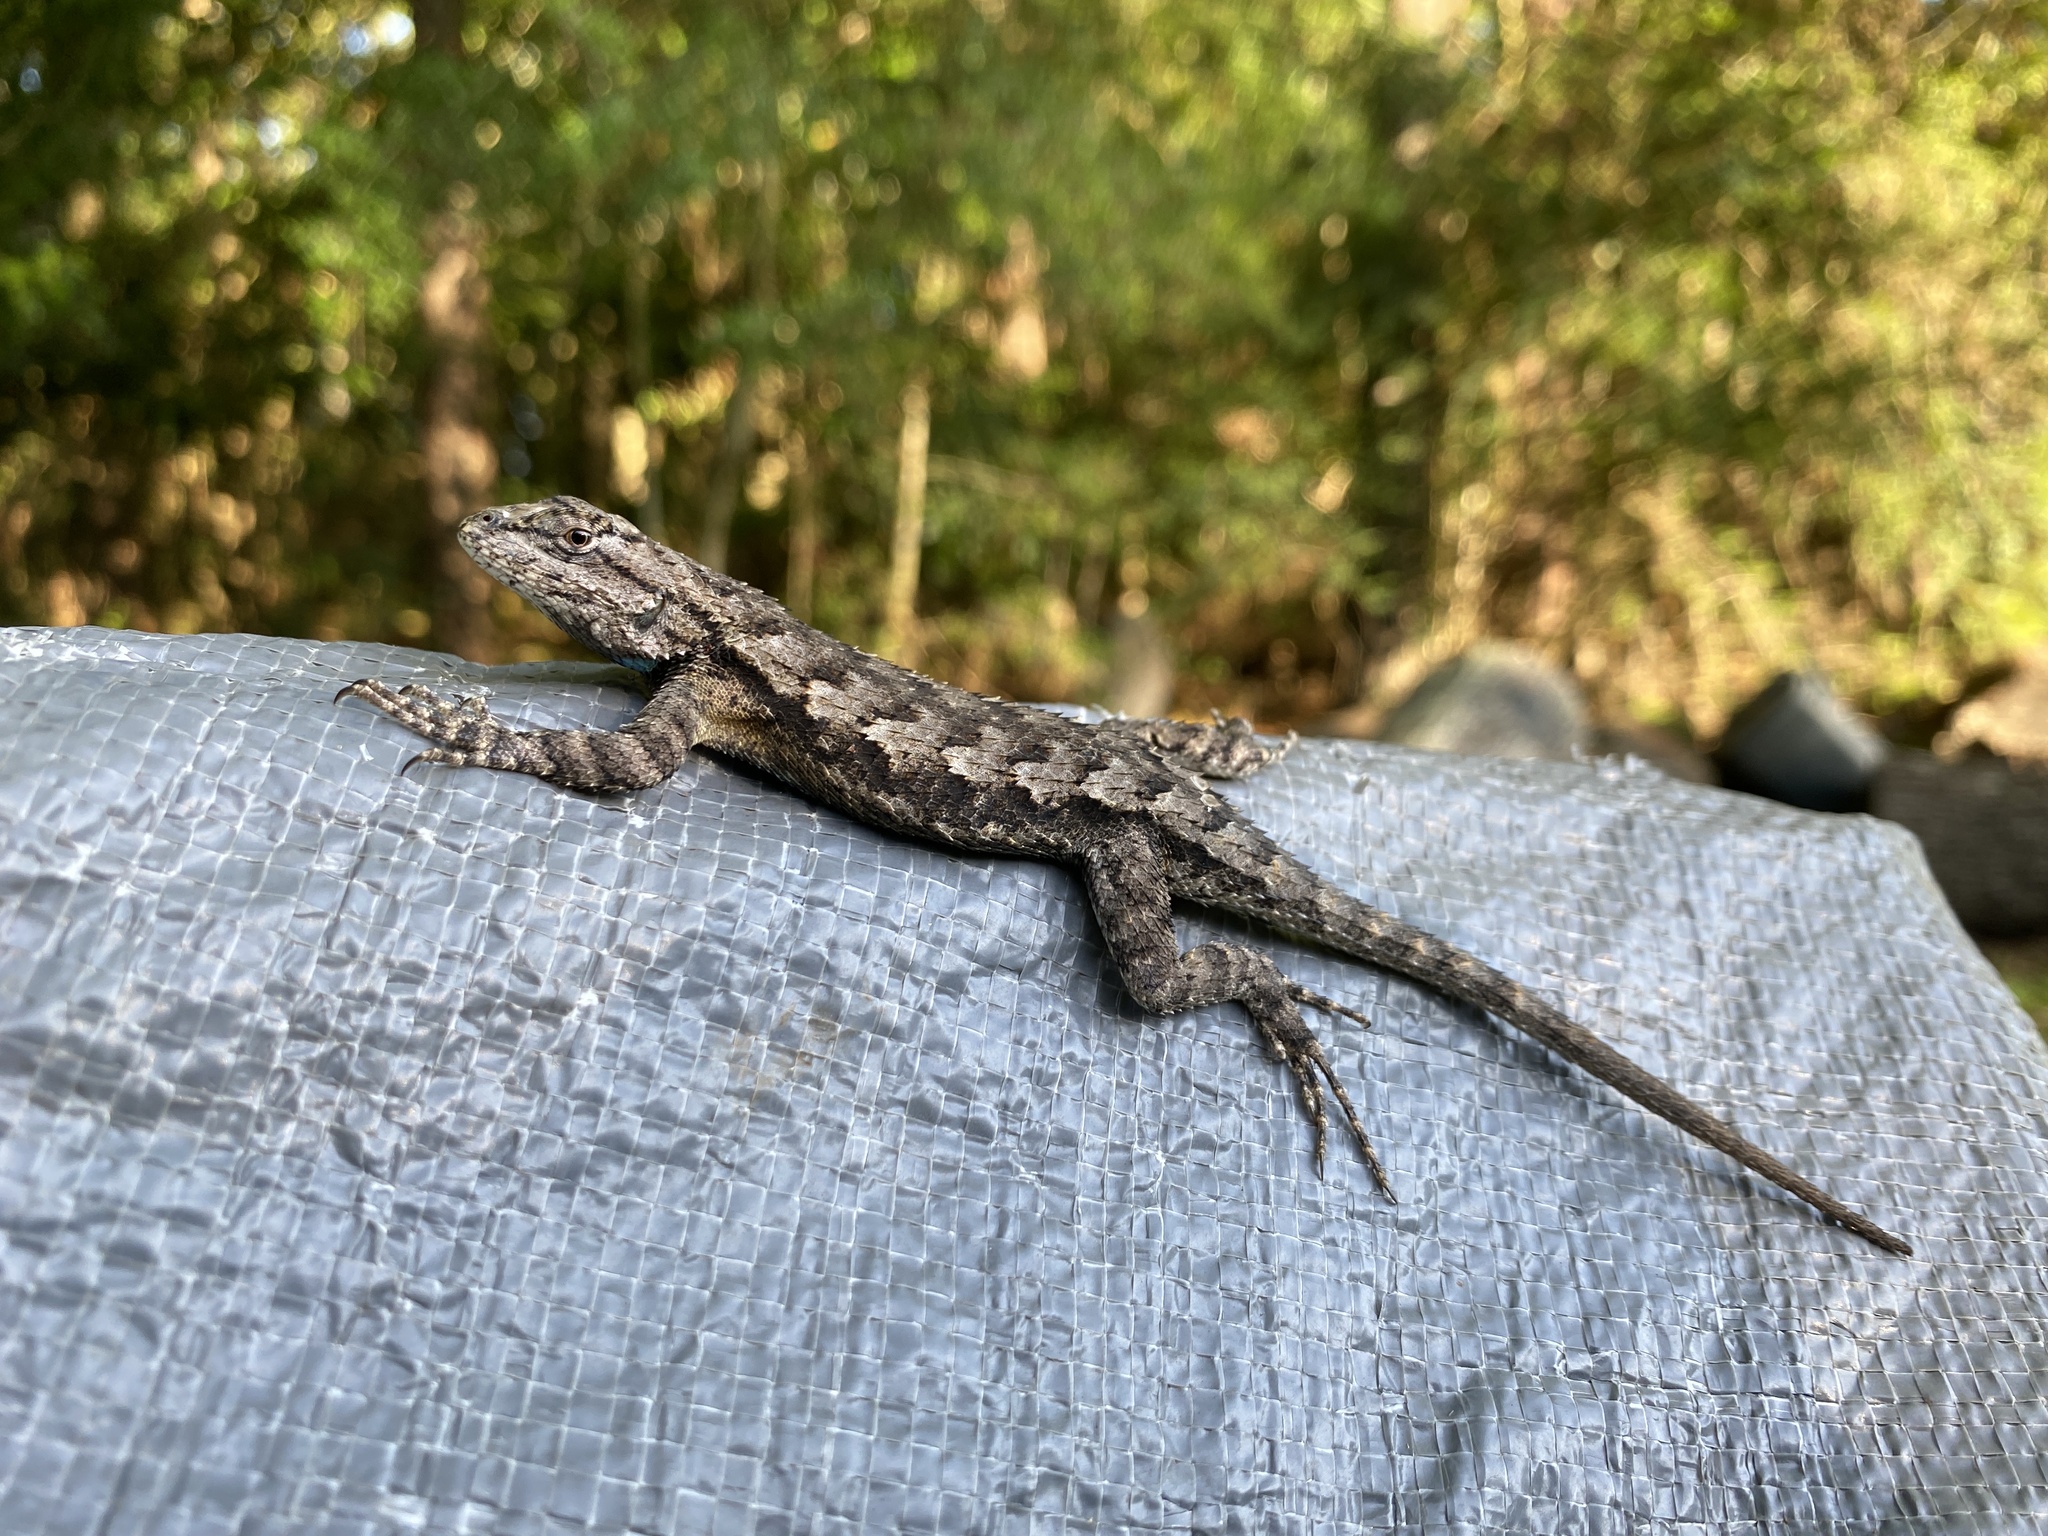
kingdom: Animalia
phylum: Chordata
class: Squamata
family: Phrynosomatidae
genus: Sceloporus
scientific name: Sceloporus consobrinus
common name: Southern prairie lizard
